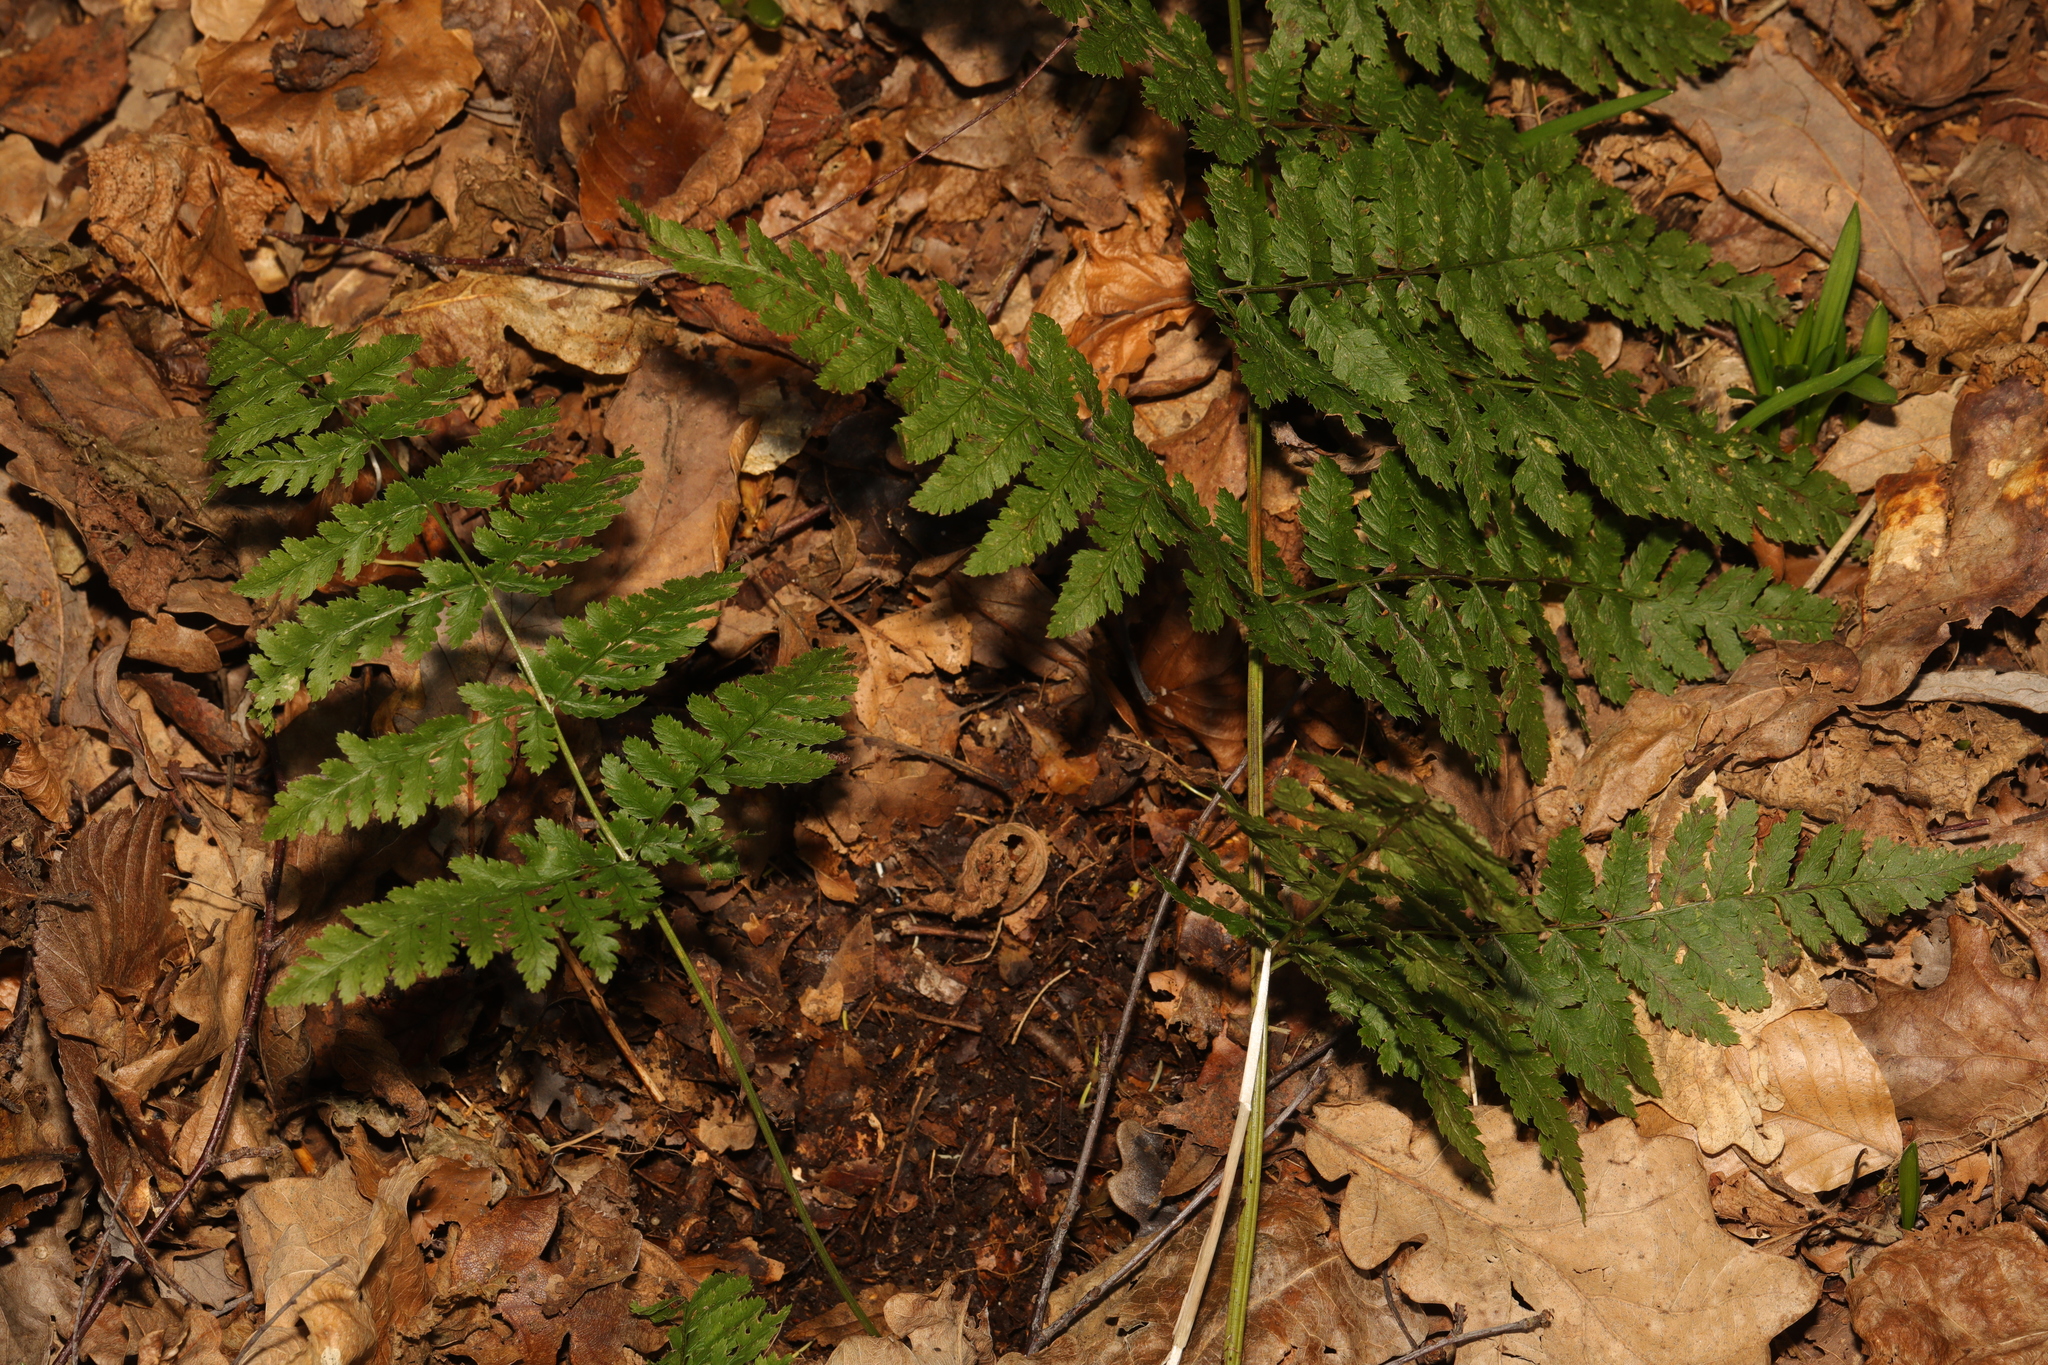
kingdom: Plantae
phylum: Tracheophyta
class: Polypodiopsida
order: Polypodiales
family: Dryopteridaceae
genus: Dryopteris
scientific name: Dryopteris carthusiana
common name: Narrow buckler-fern
